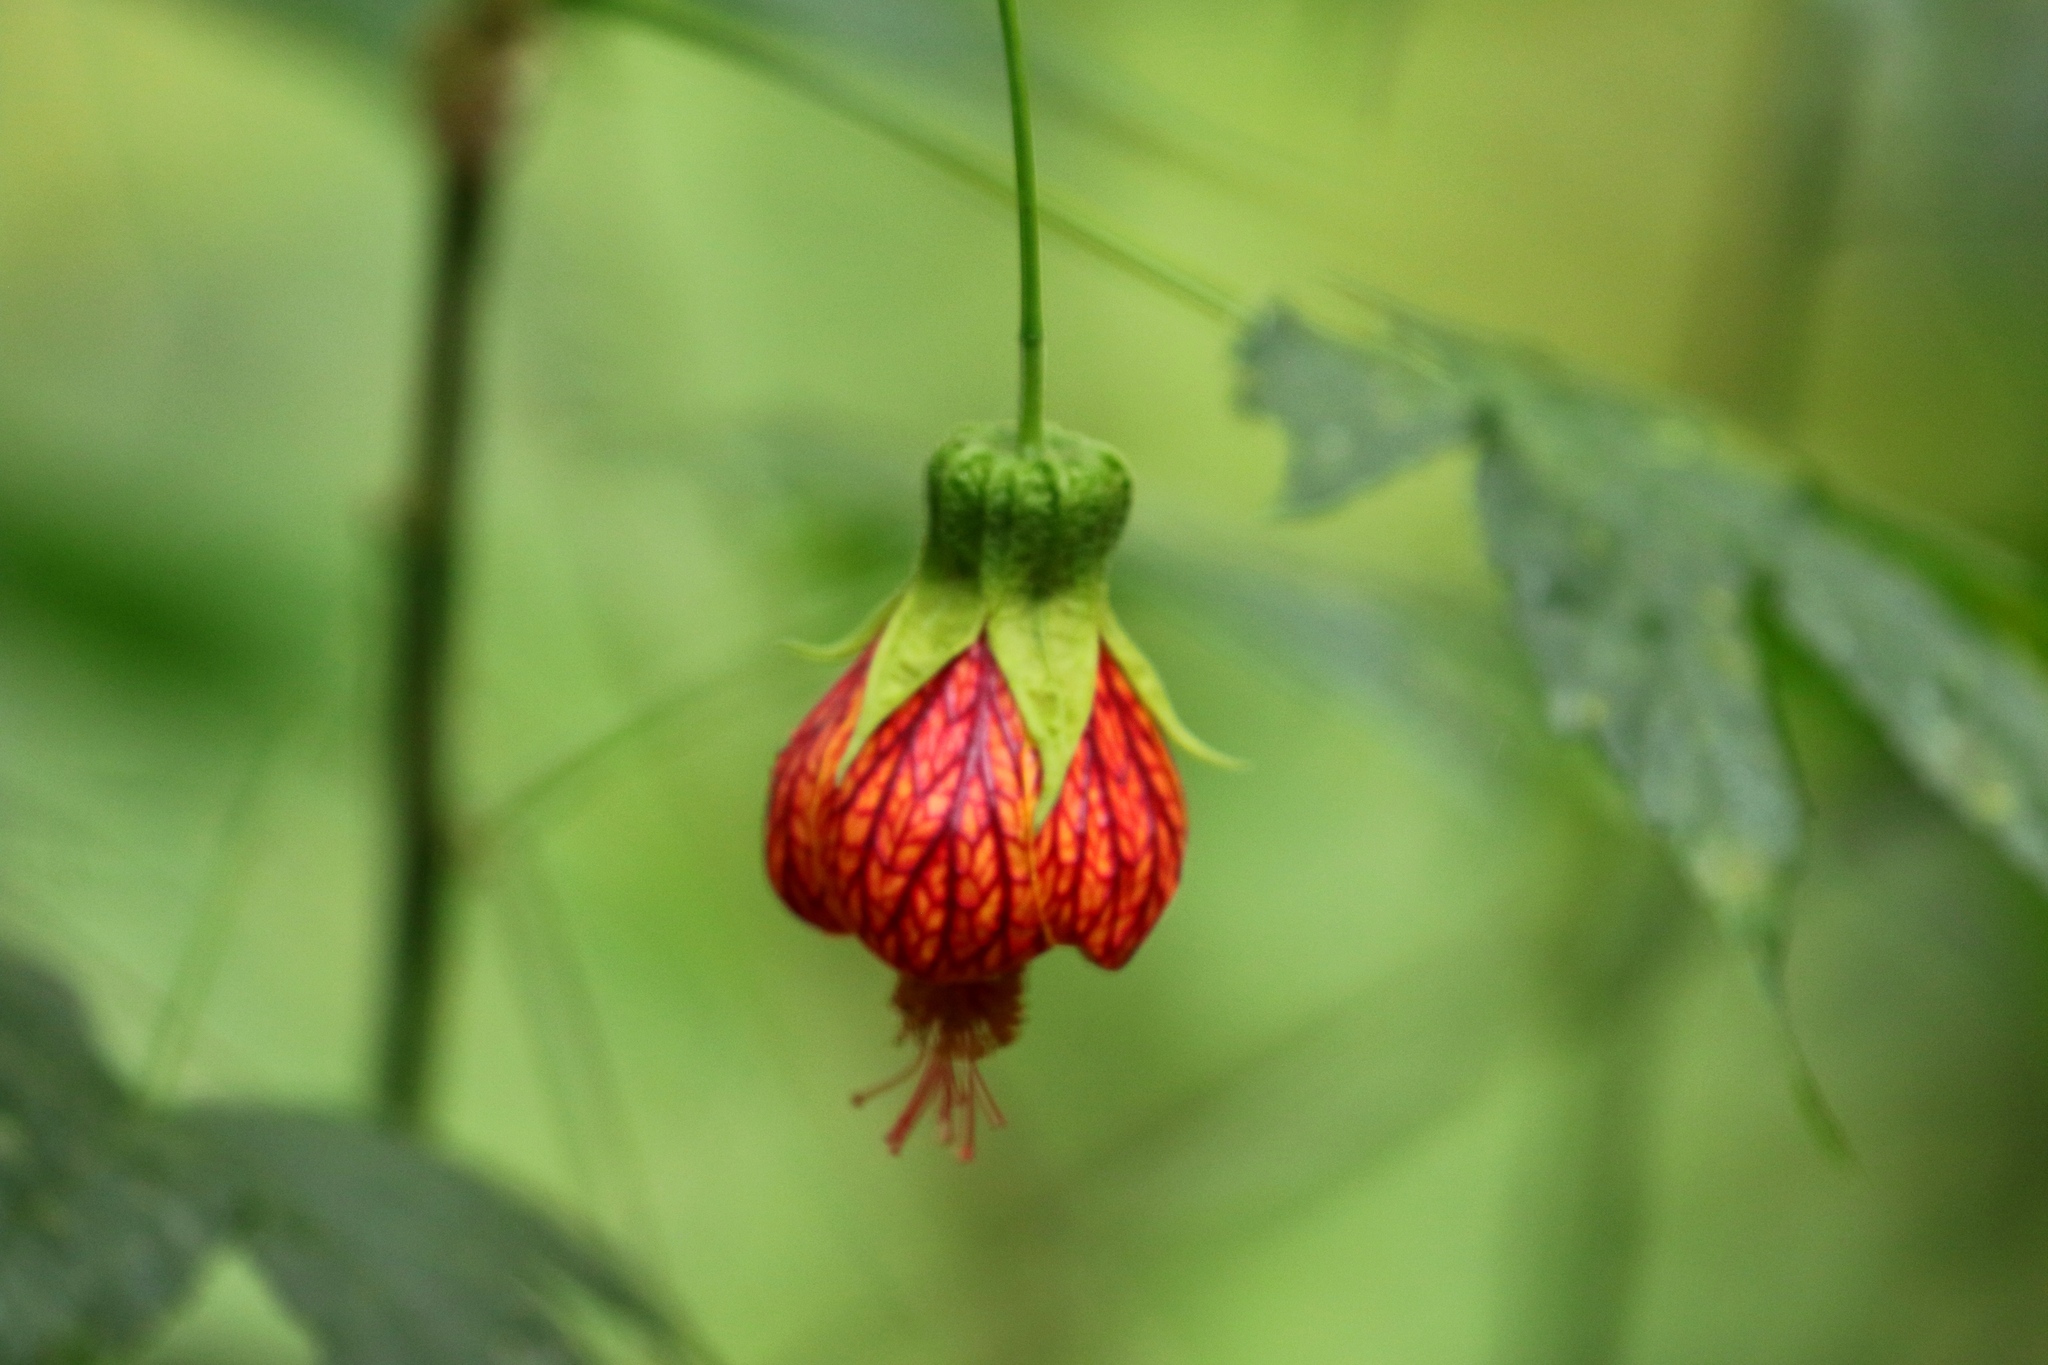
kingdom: Plantae
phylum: Tracheophyta
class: Magnoliopsida
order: Malvales
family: Malvaceae
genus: Callianthe
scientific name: Callianthe picta
